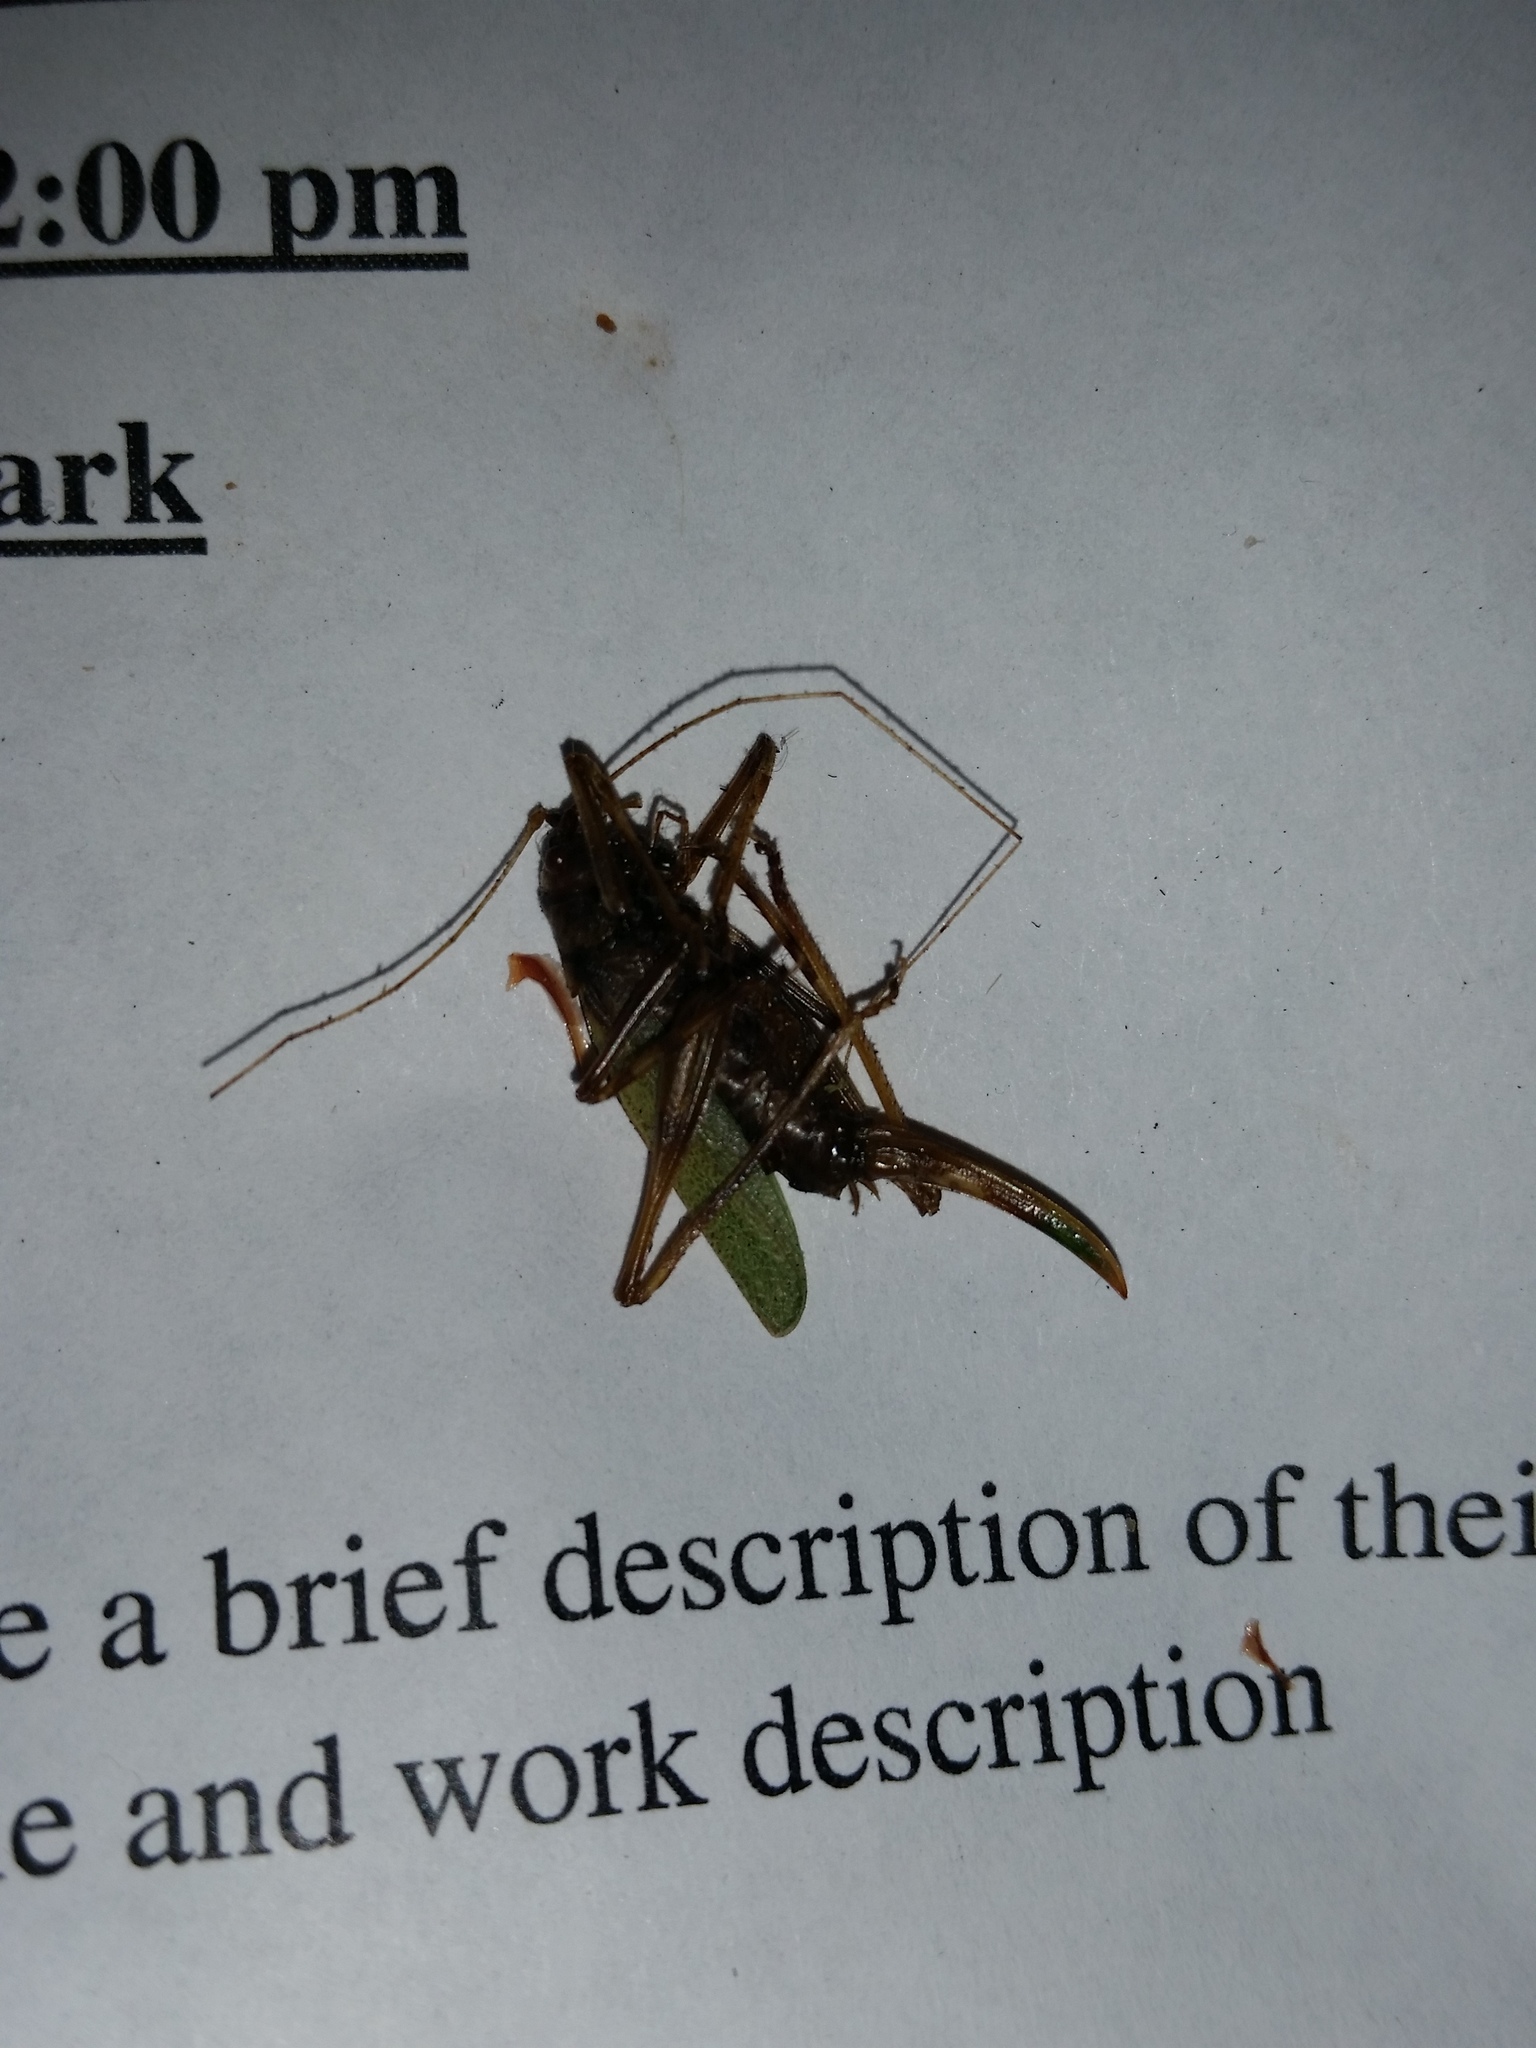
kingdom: Animalia
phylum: Arthropoda
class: Insecta
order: Orthoptera
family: Tettigoniidae
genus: Meconema
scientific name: Meconema thalassinum
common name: Oak bush-cricket
